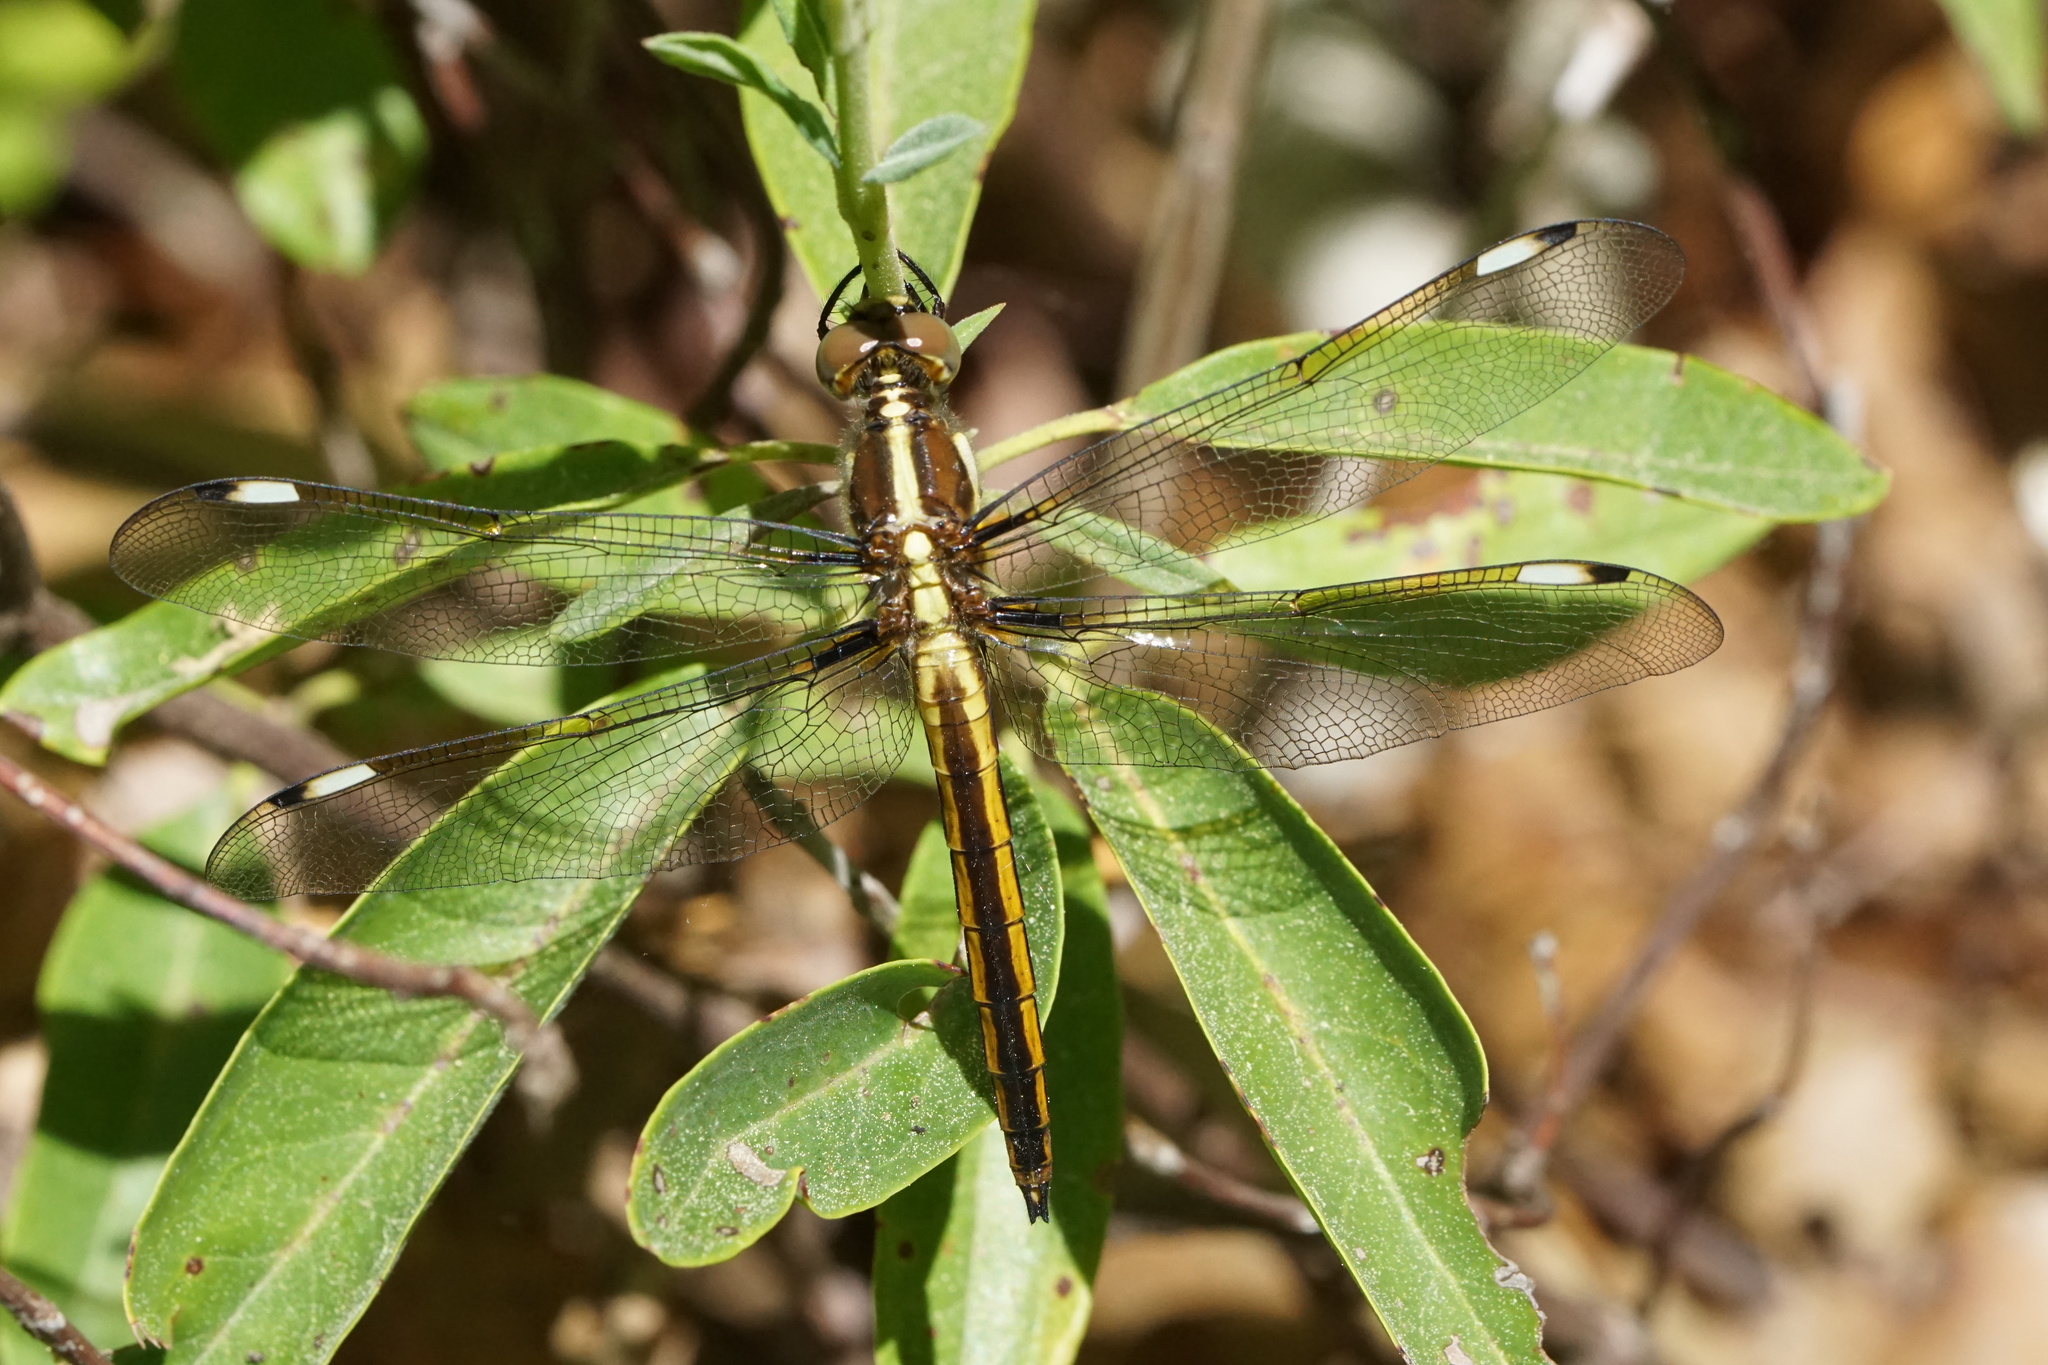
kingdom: Animalia
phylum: Arthropoda
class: Insecta
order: Odonata
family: Libellulidae
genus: Libellula
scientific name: Libellula cyanea
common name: Spangled skimmer
